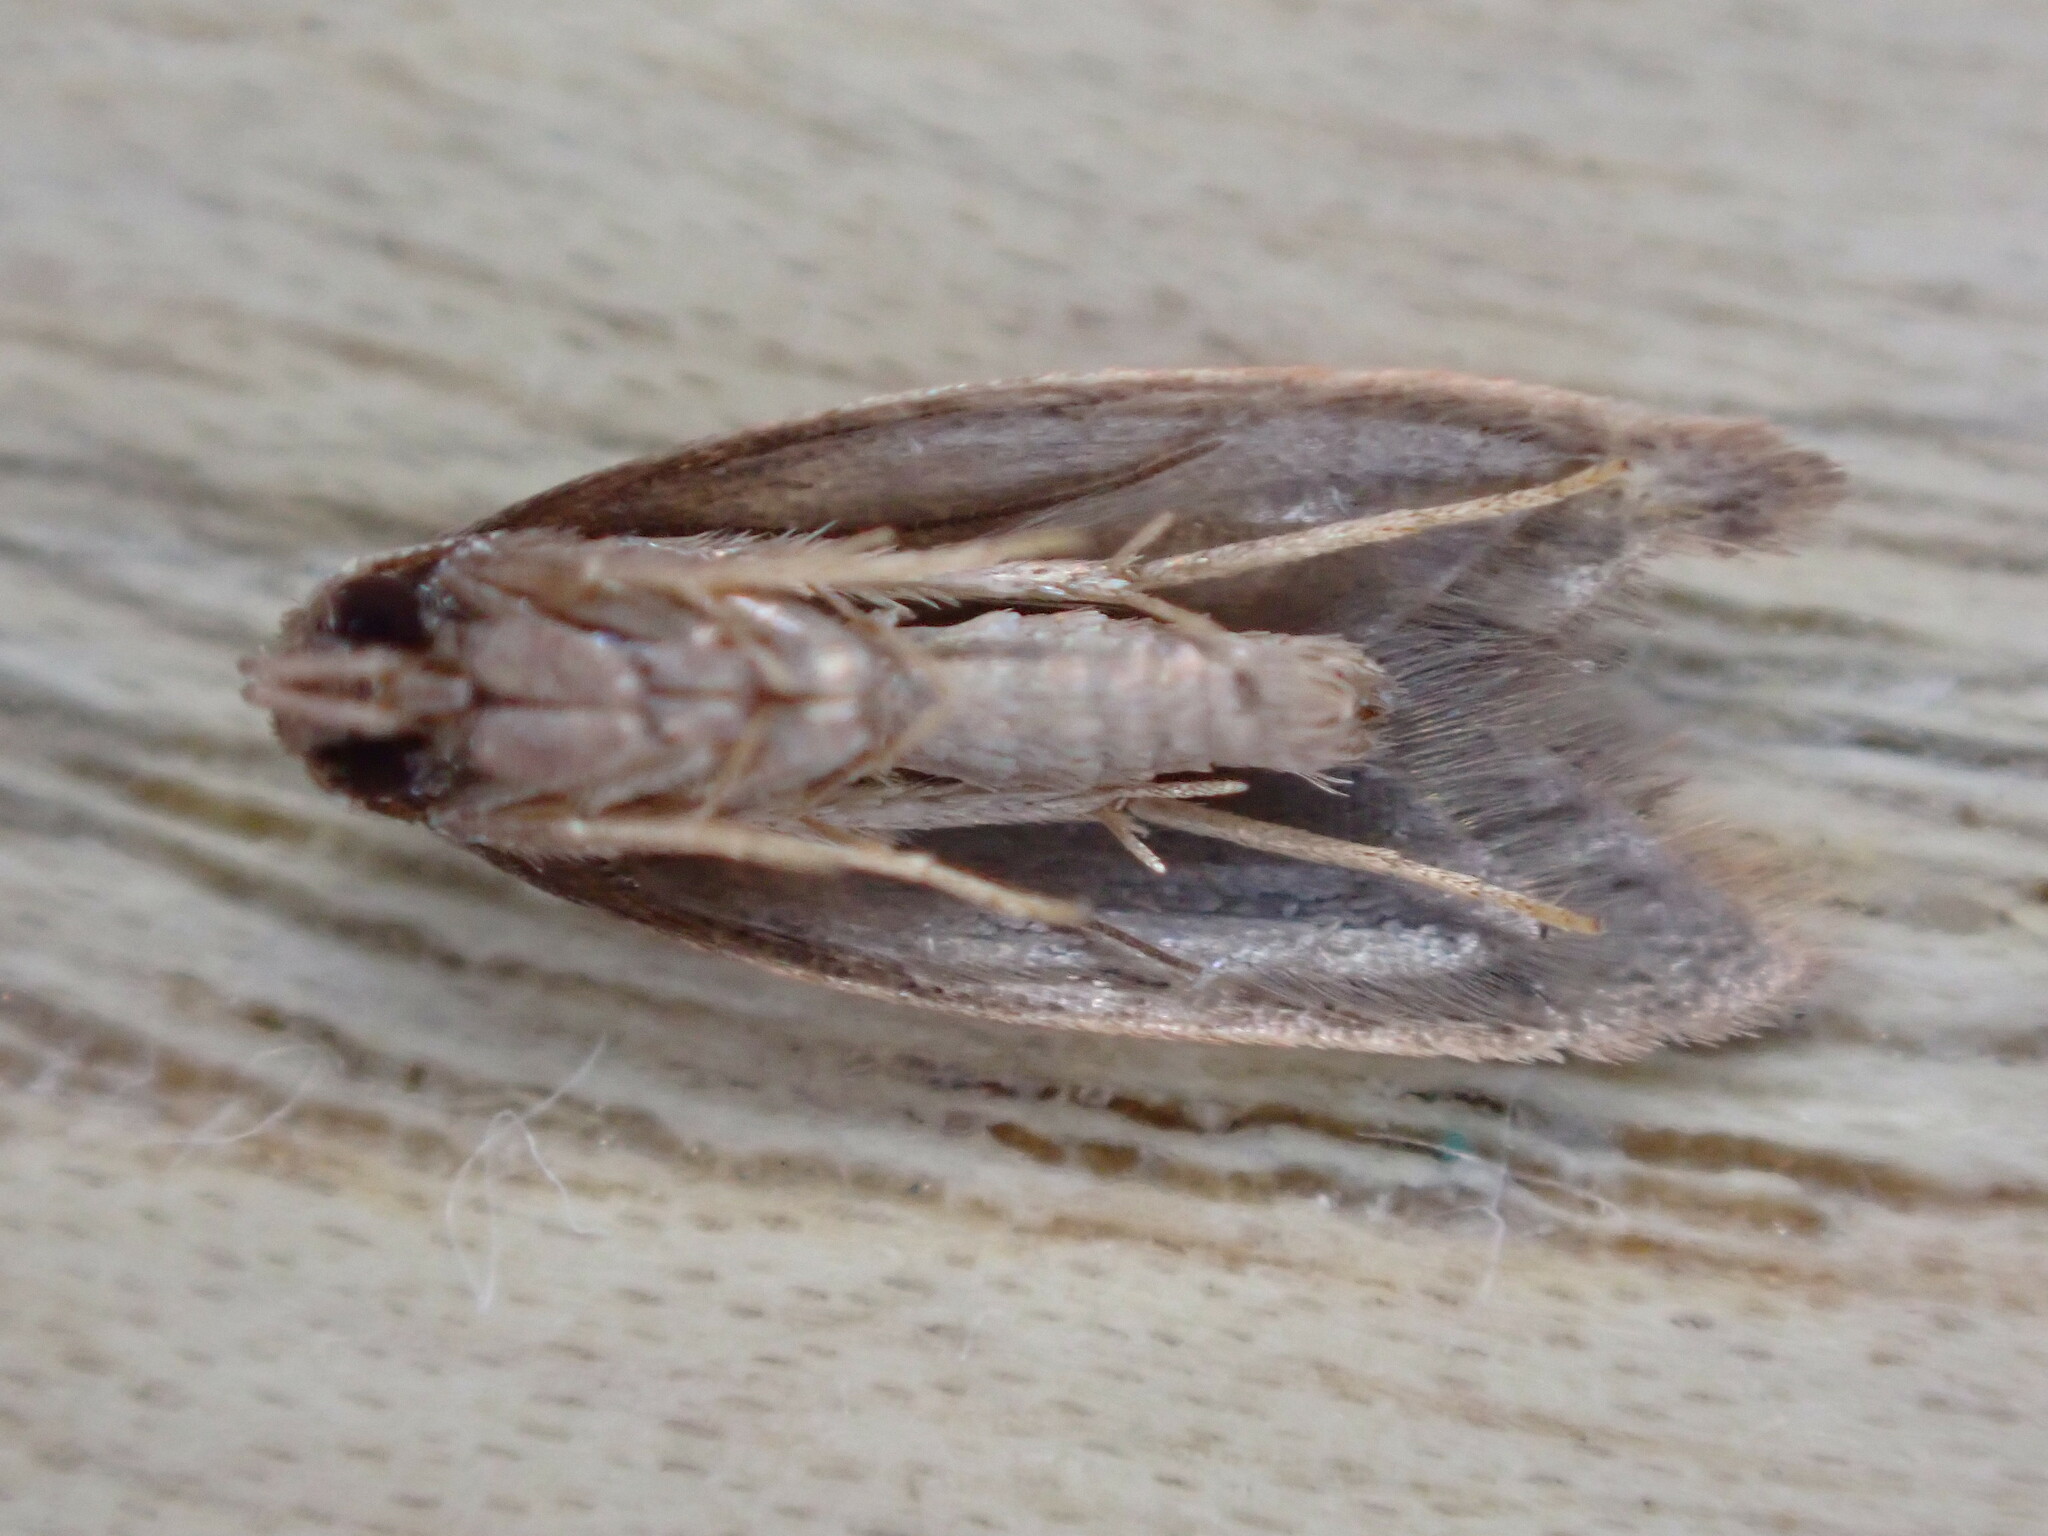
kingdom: Animalia
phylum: Arthropoda
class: Insecta
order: Lepidoptera
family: Oecophoridae
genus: Tachystola
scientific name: Tachystola acroxantha
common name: Ruddy streak
